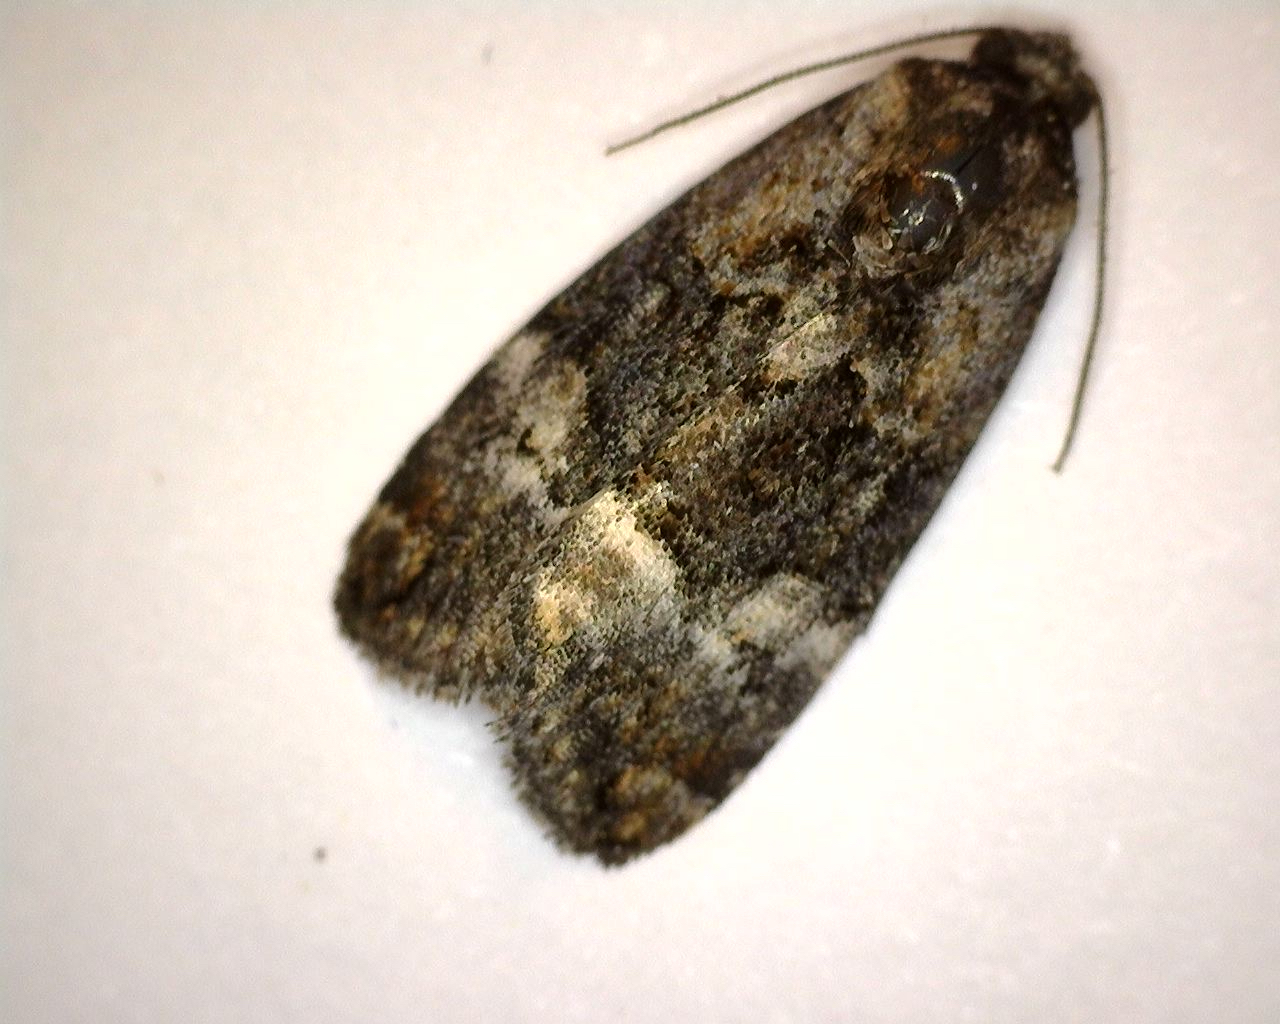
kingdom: Animalia
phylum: Arthropoda
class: Insecta
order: Lepidoptera
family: Noctuidae
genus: Elaphria
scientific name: Elaphria georgei
